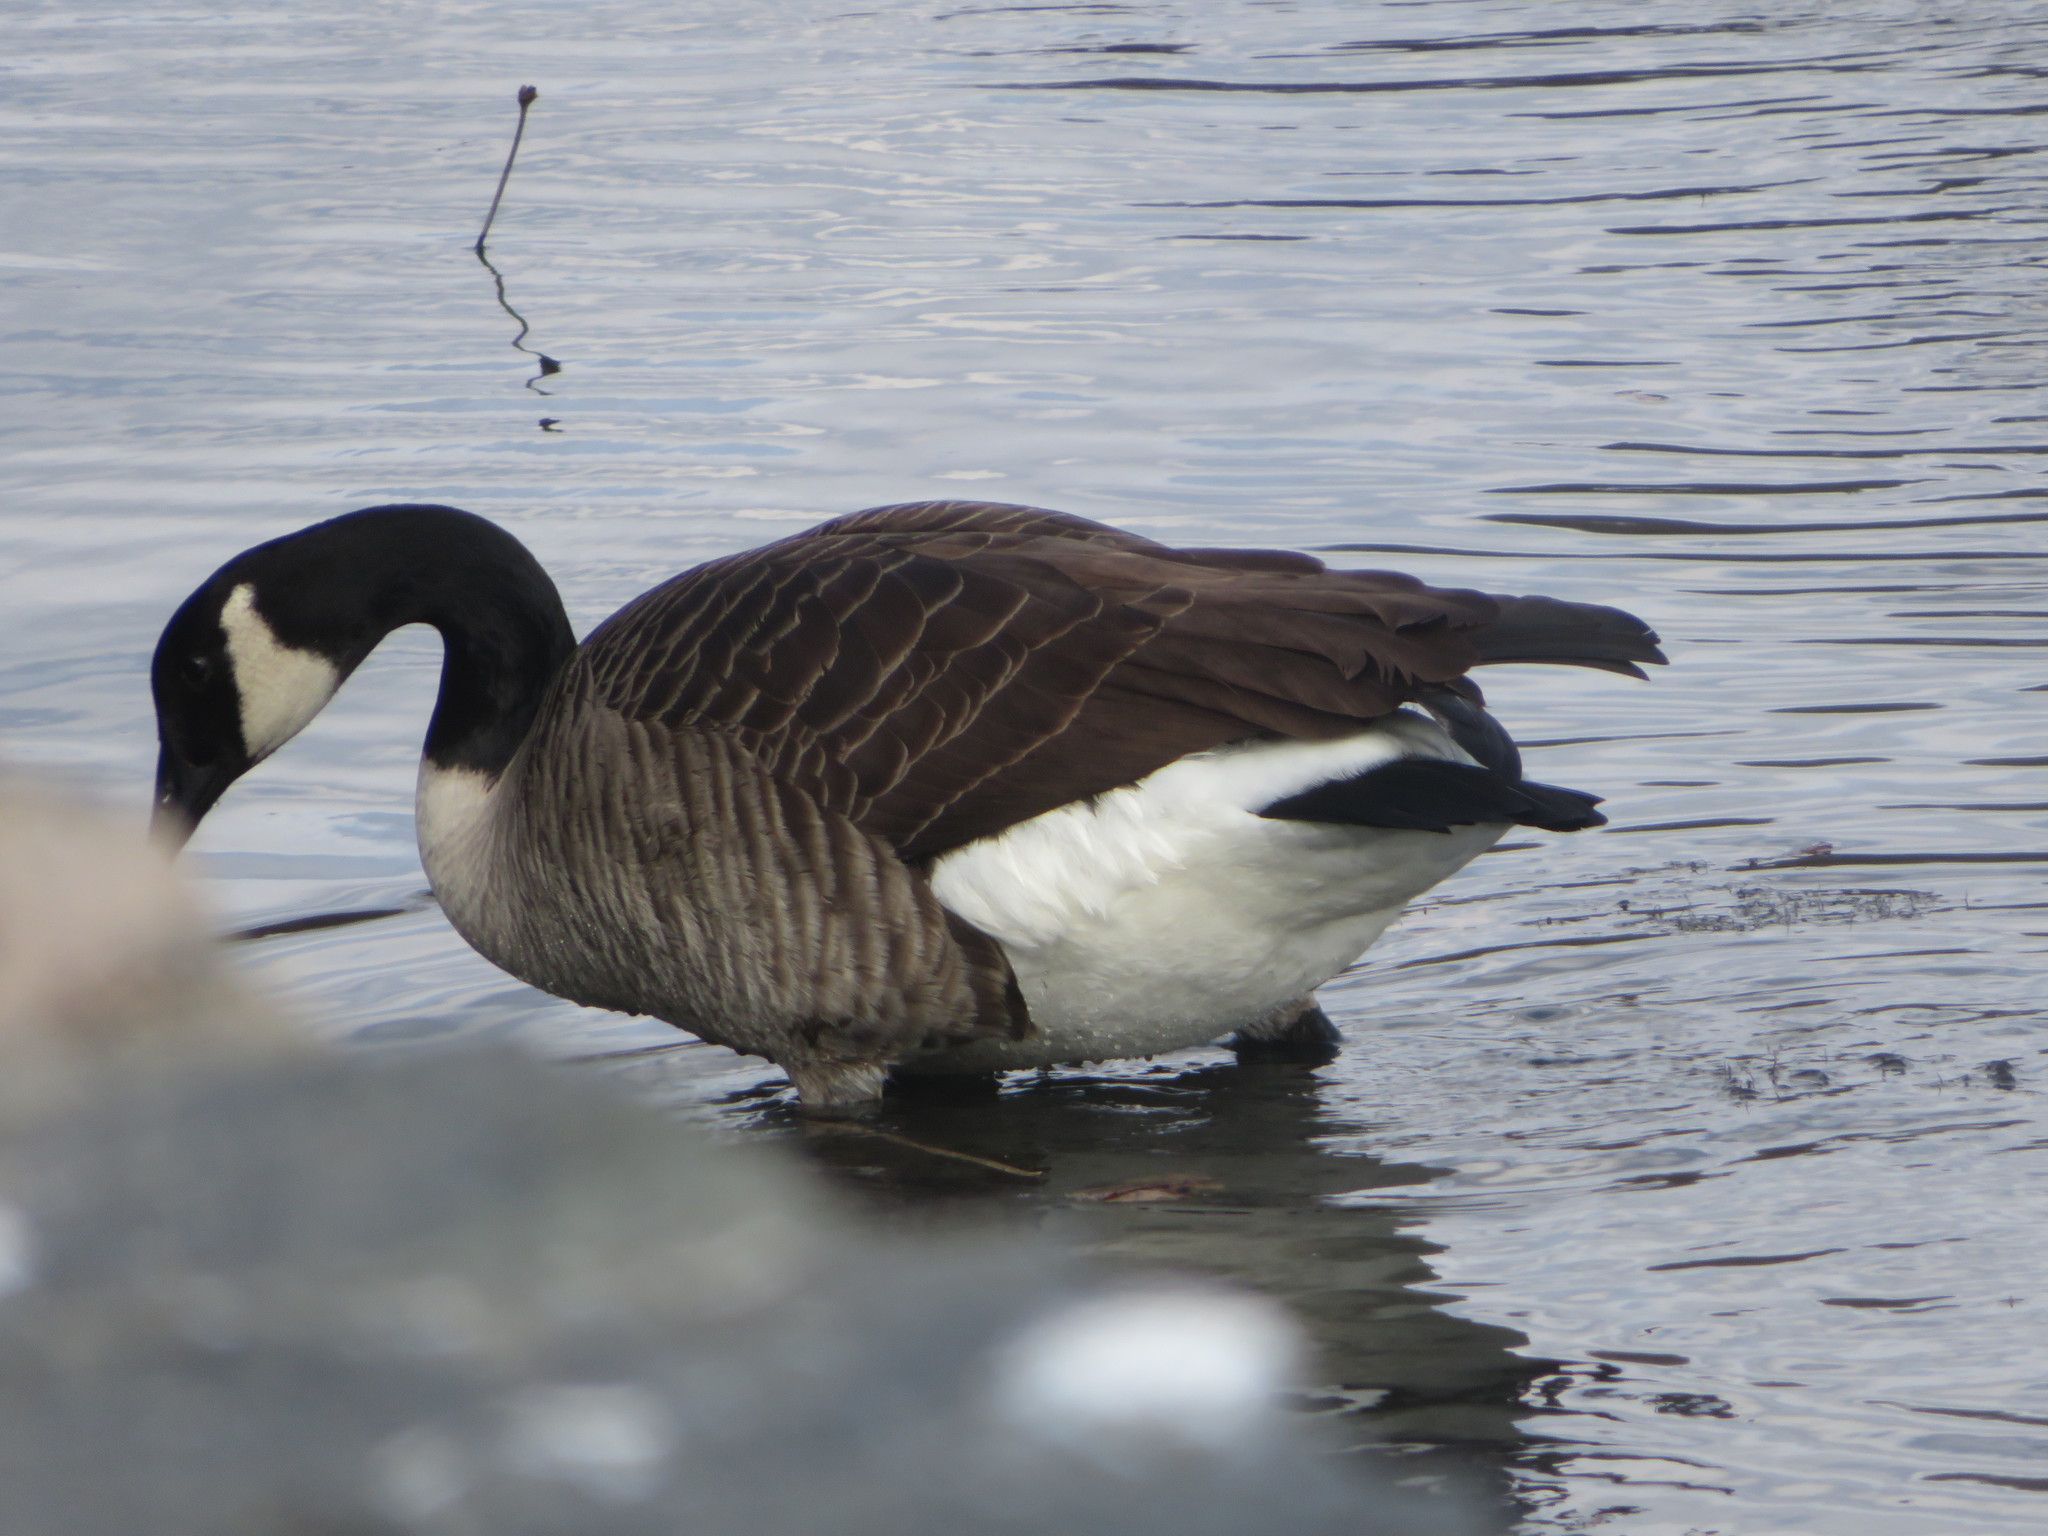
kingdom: Animalia
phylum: Chordata
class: Aves
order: Anseriformes
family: Anatidae
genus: Branta
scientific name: Branta canadensis
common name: Canada goose
